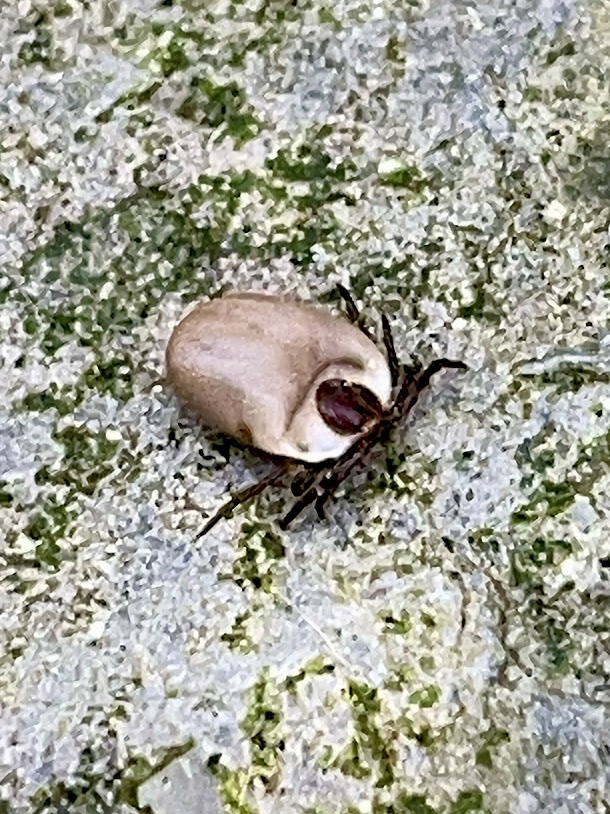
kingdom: Animalia
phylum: Arthropoda
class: Arachnida
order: Ixodida
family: Ixodidae
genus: Ixodes
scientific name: Ixodes ricinus
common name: Castor bean tick
